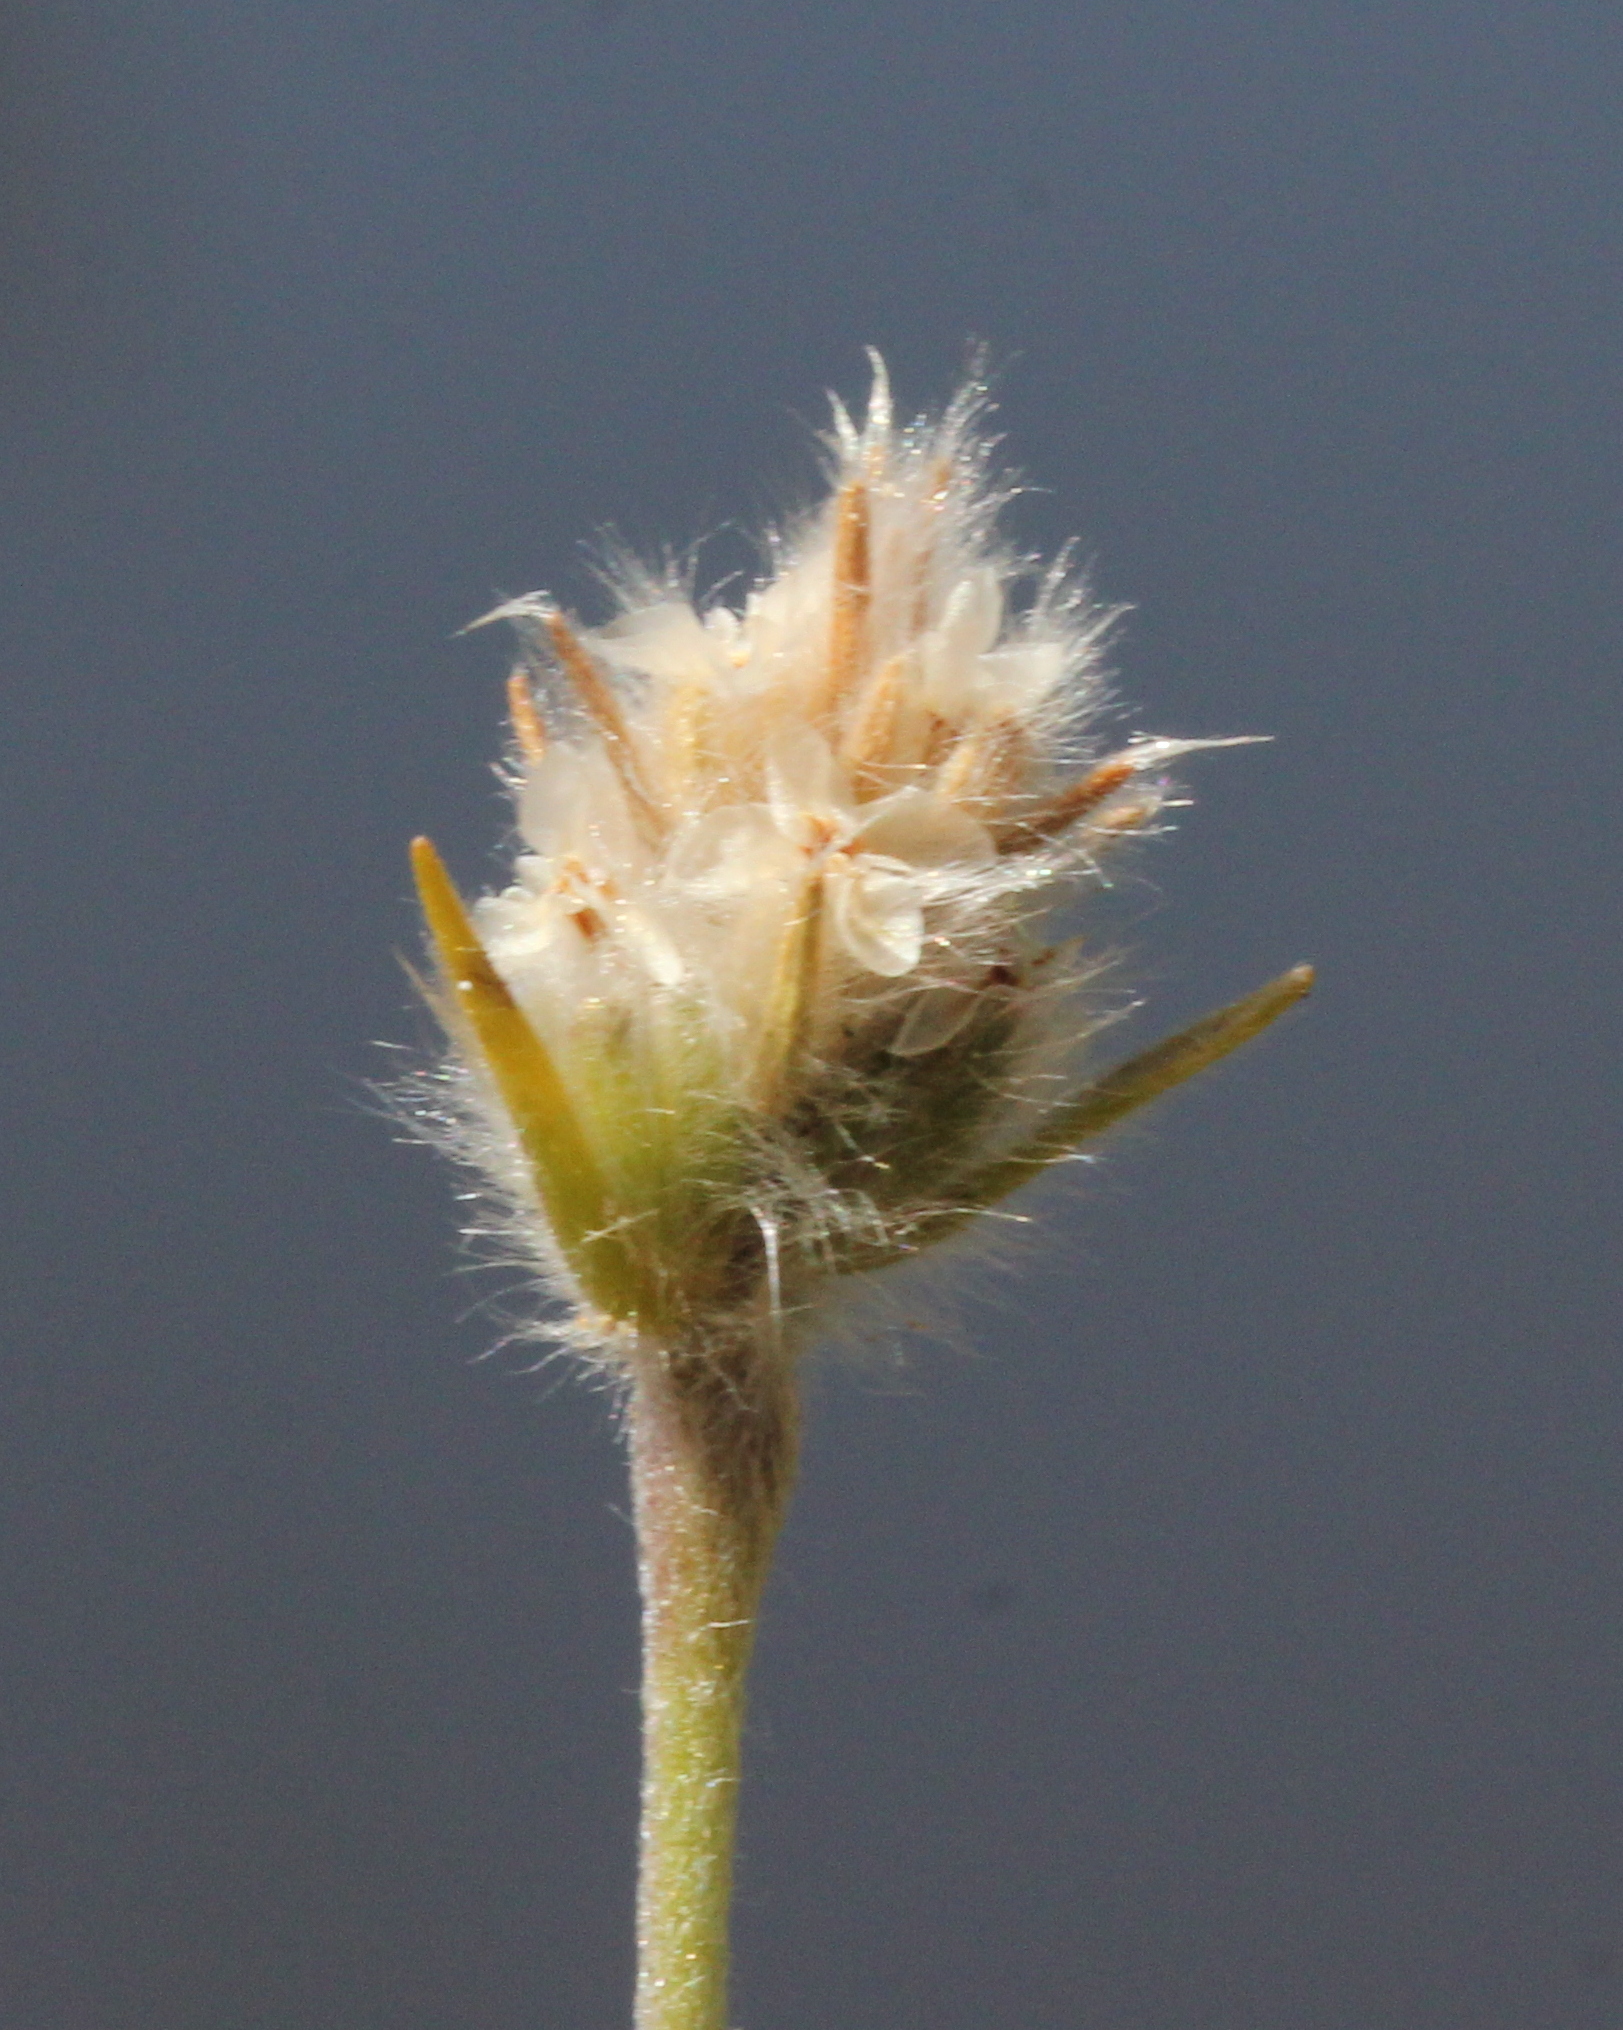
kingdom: Plantae
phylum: Tracheophyta
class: Magnoliopsida
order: Lamiales
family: Plantaginaceae
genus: Plantago
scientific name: Plantago patagonica
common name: Patagonia indian-wheat
